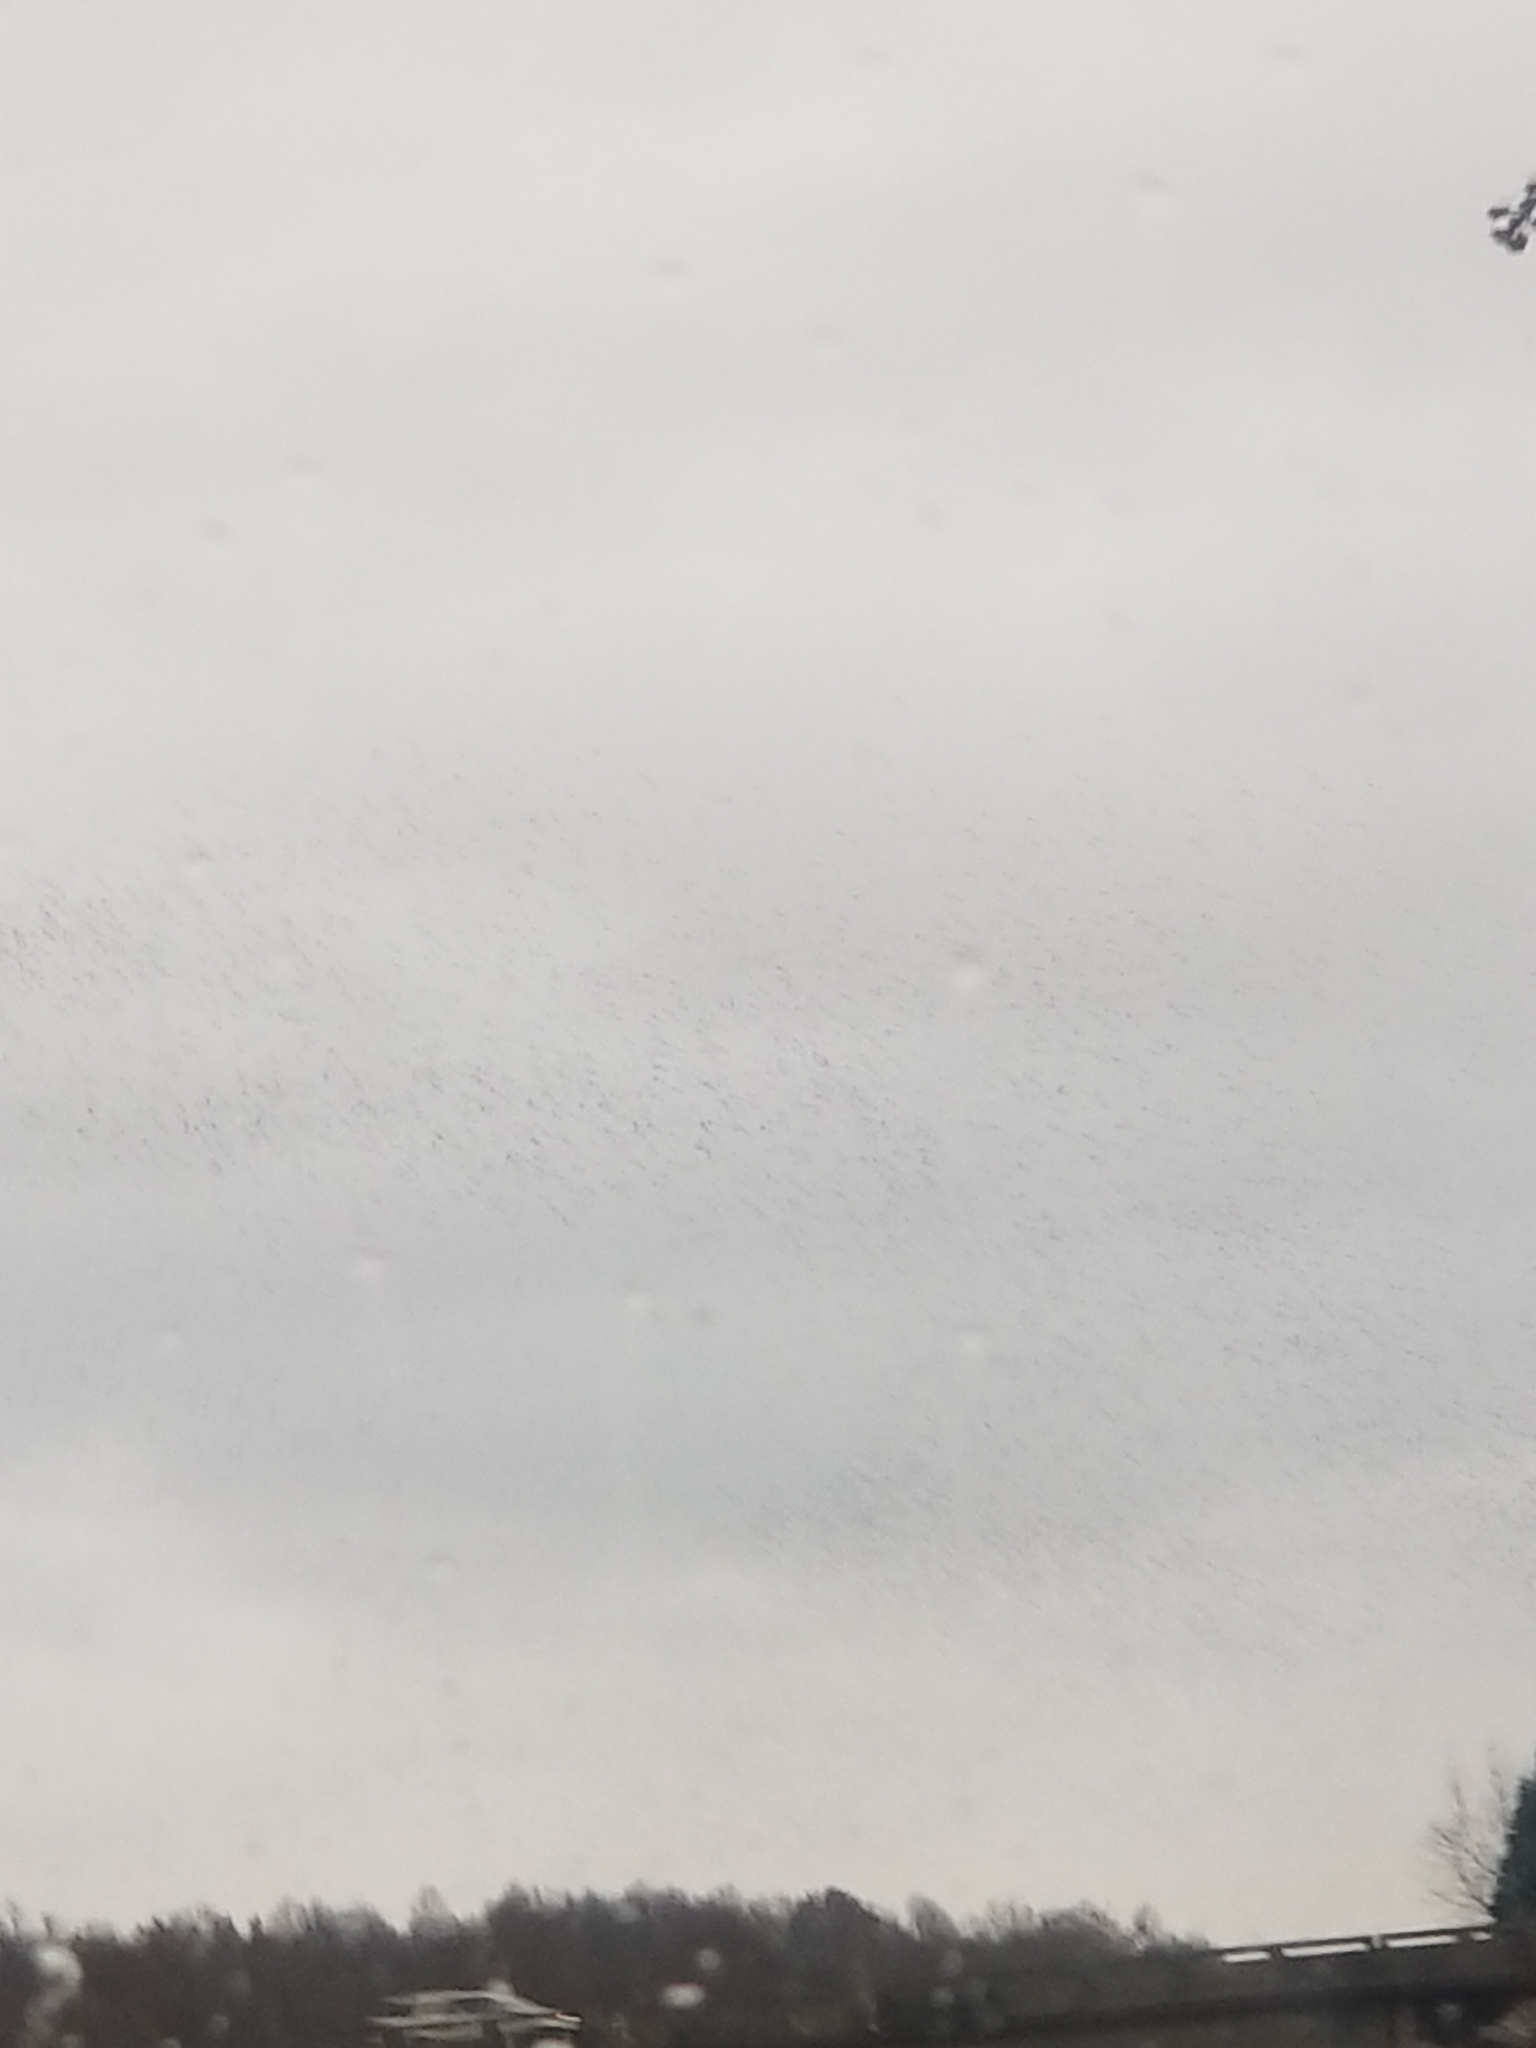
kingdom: Animalia
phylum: Chordata
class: Aves
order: Passeriformes
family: Sturnidae
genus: Sturnus
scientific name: Sturnus vulgaris
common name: Common starling
